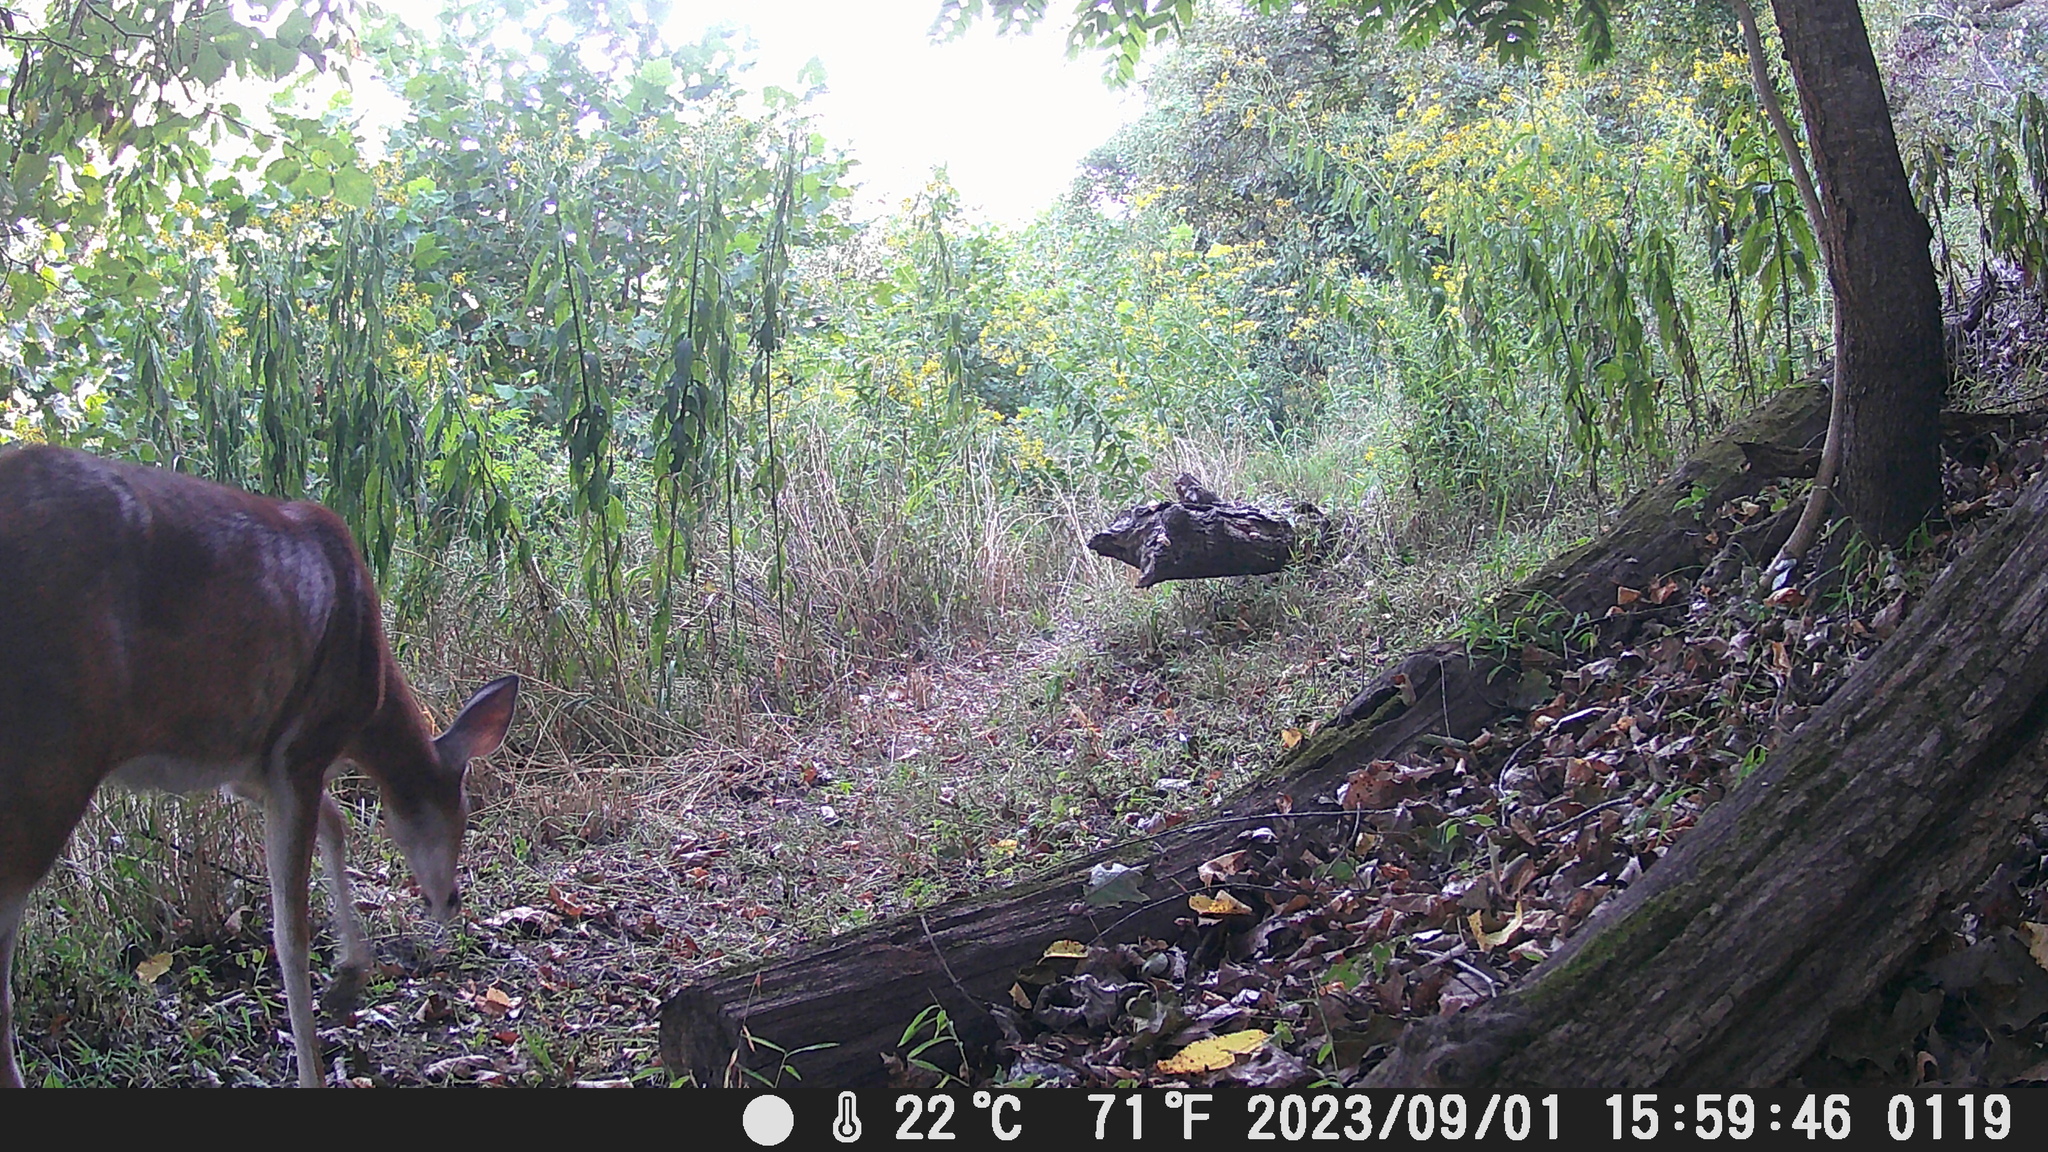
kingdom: Animalia
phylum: Chordata
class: Mammalia
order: Artiodactyla
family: Cervidae
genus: Odocoileus
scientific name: Odocoileus virginianus
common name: White-tailed deer
